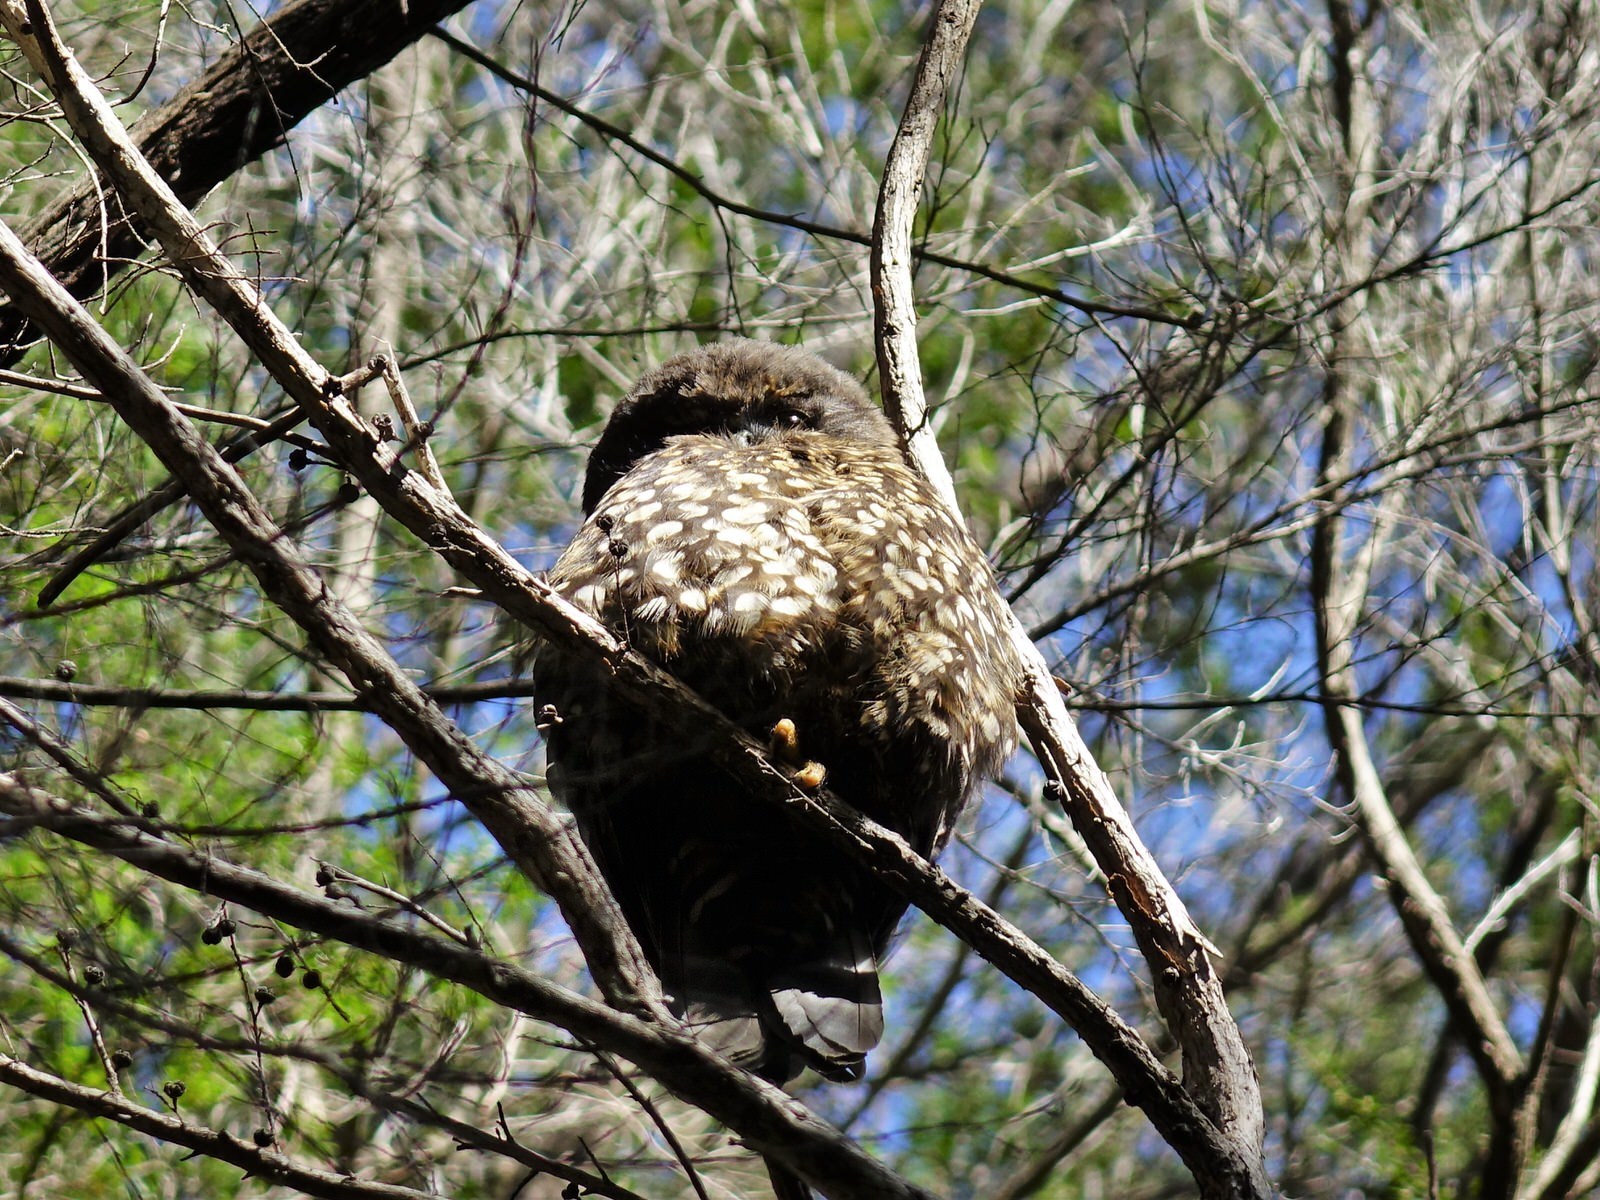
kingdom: Animalia
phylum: Chordata
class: Aves
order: Strigiformes
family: Strigidae
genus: Ninox
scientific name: Ninox novaeseelandiae
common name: Morepork
